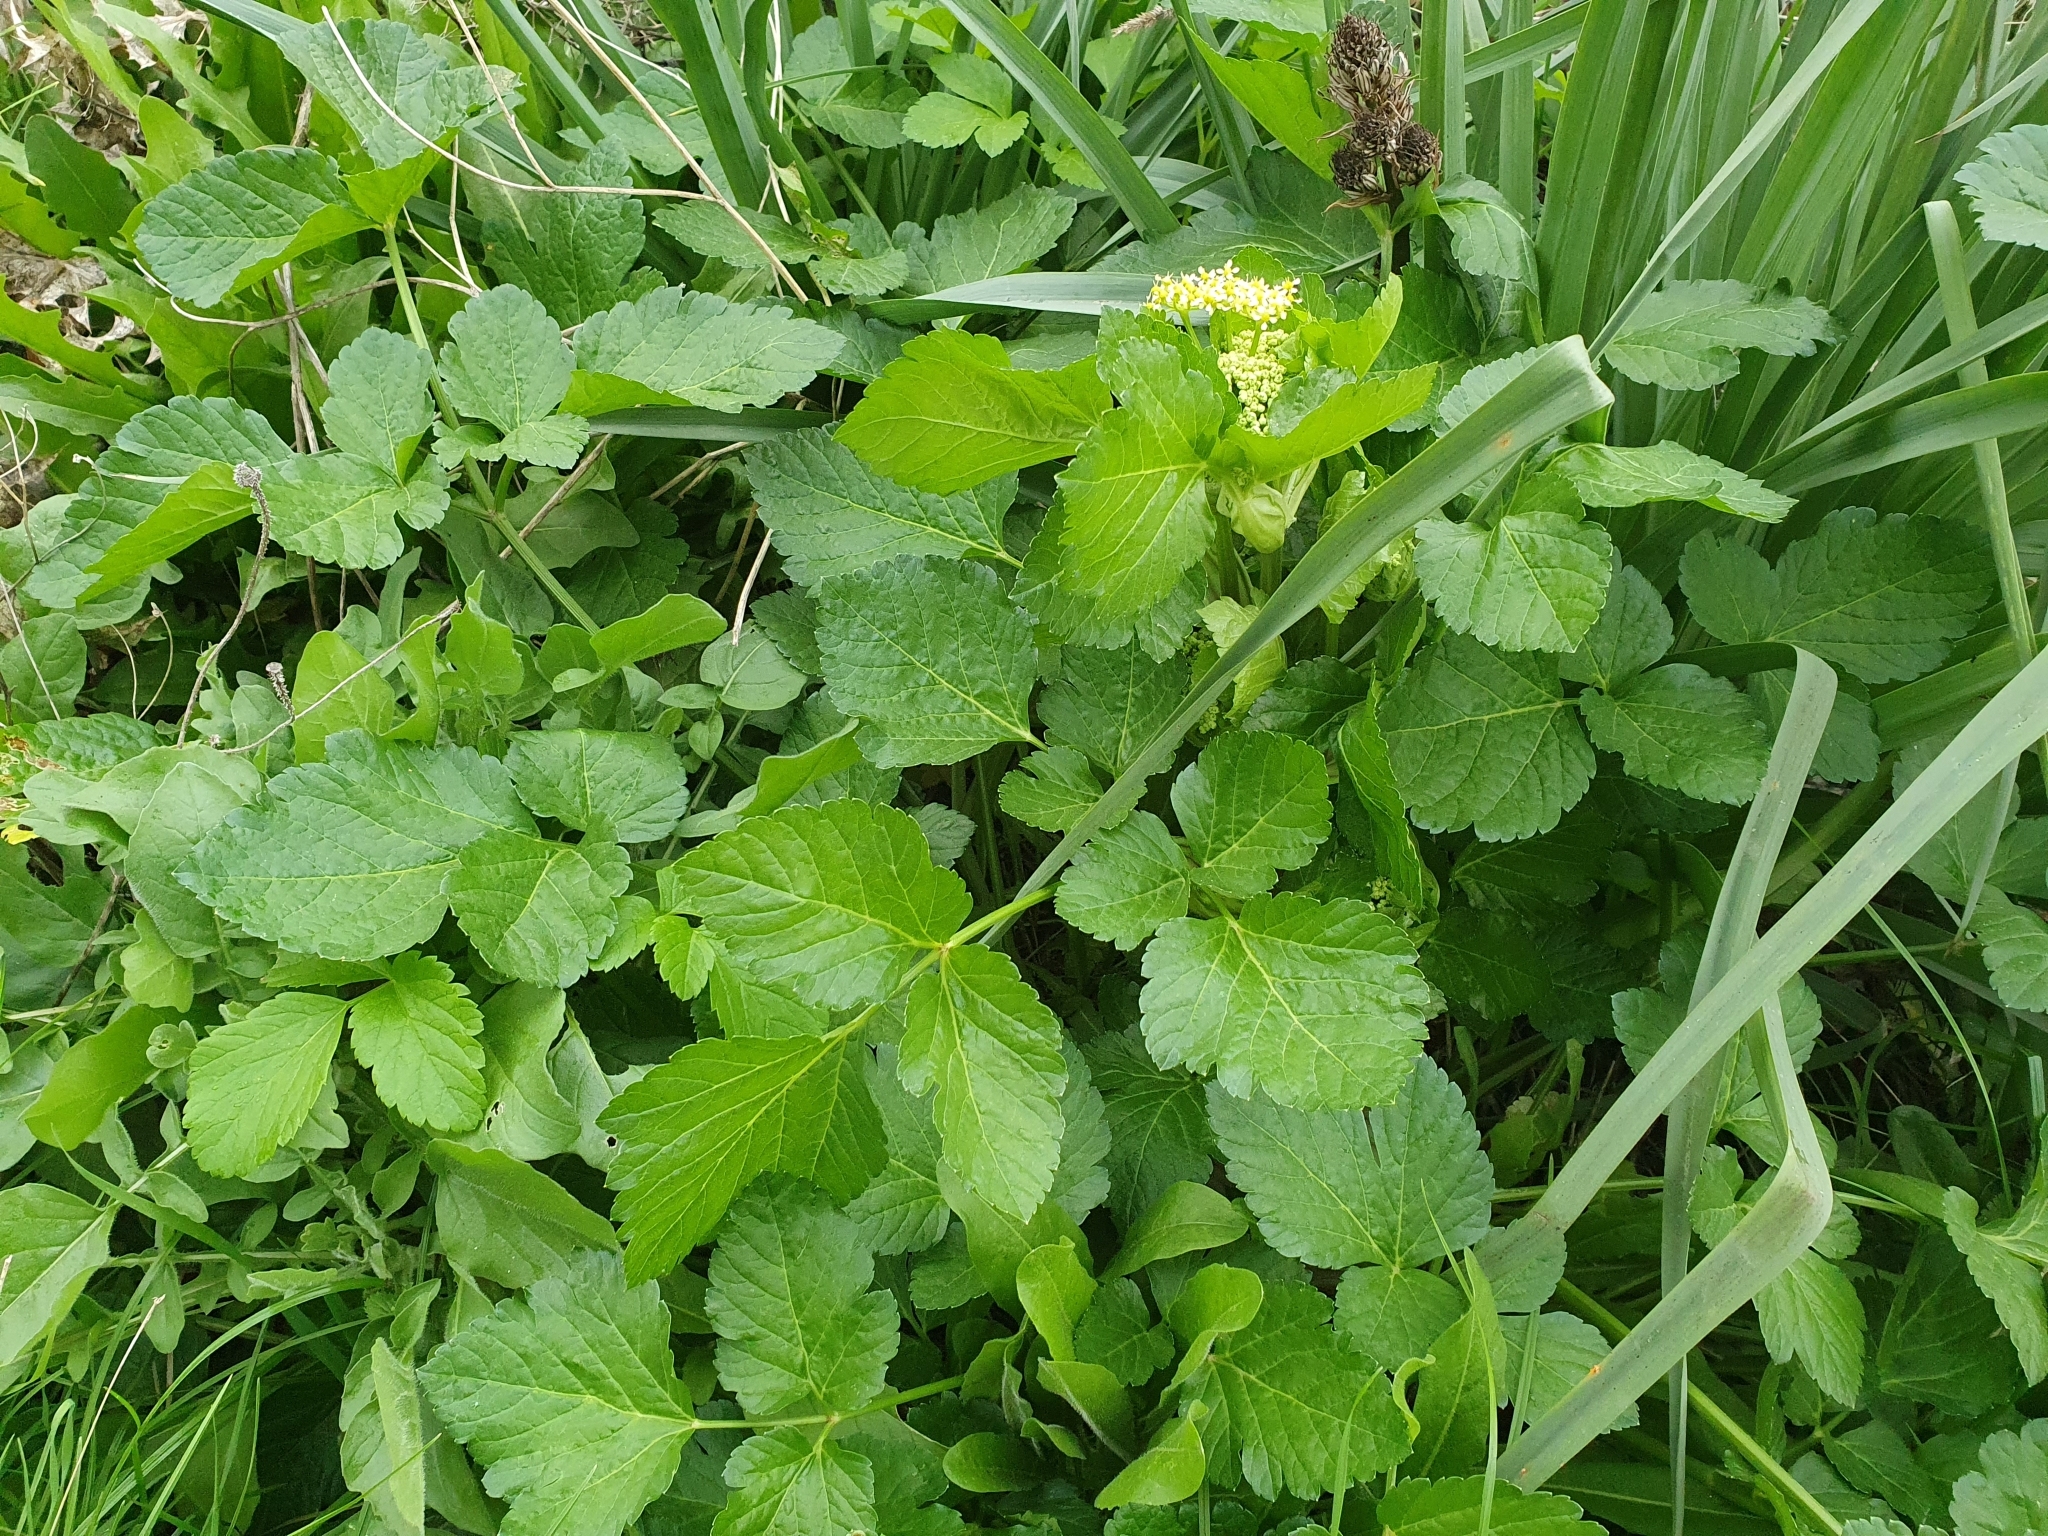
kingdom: Plantae
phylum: Tracheophyta
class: Magnoliopsida
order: Apiales
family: Apiaceae
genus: Smyrnium
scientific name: Smyrnium olusatrum
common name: Alexanders
